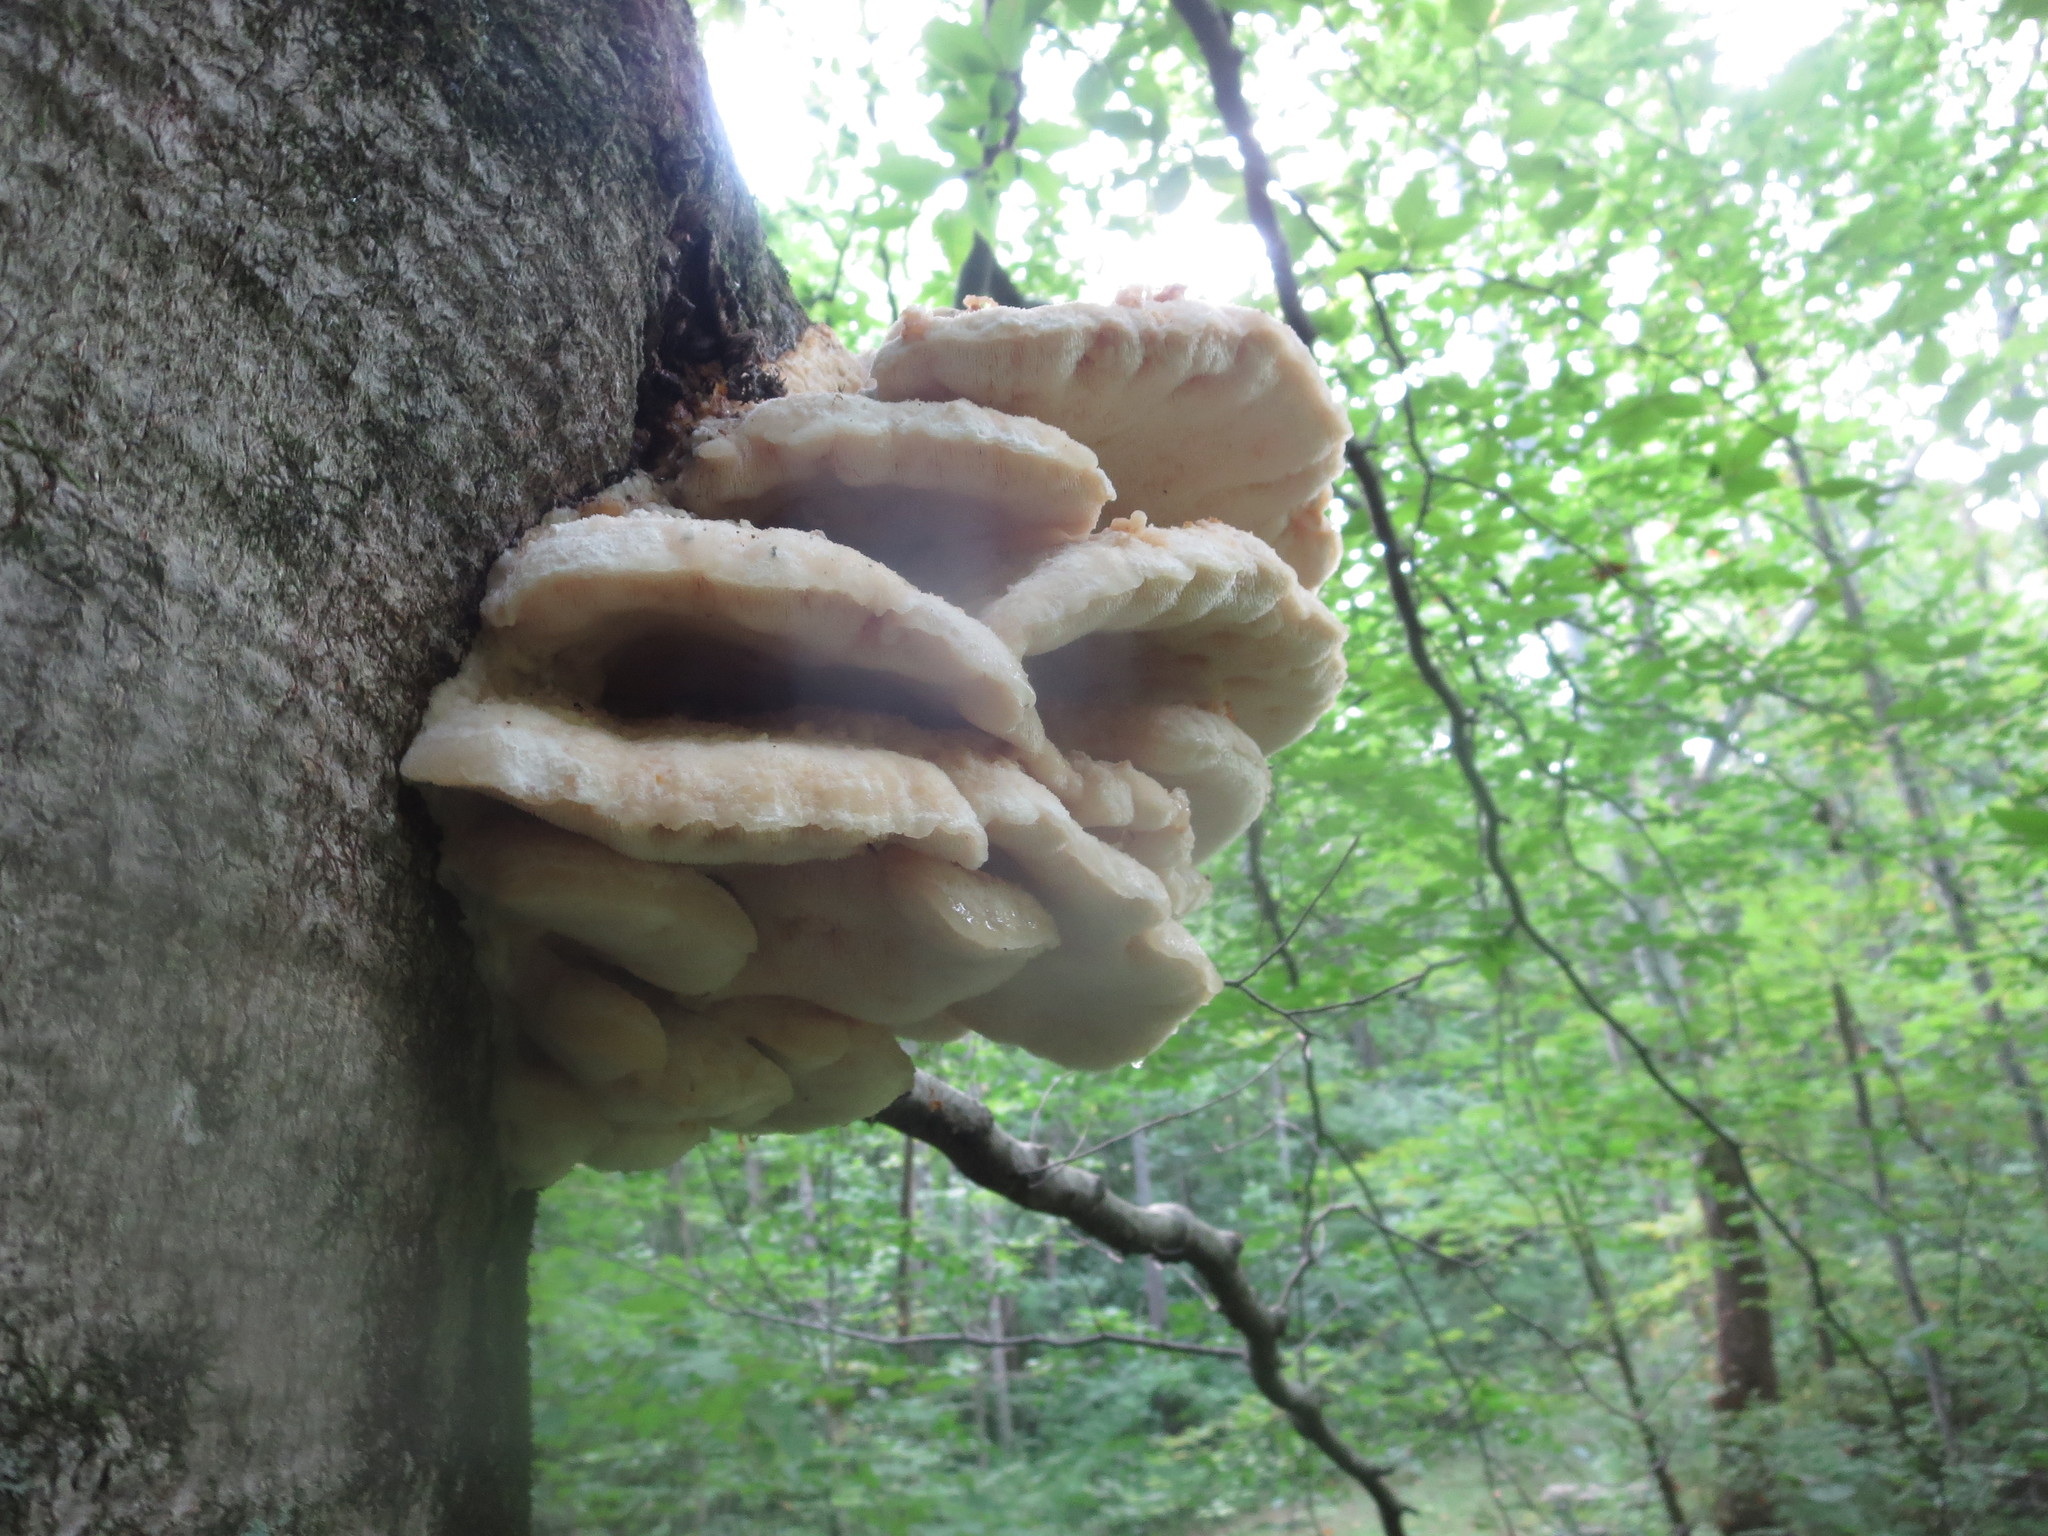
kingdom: Fungi
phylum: Basidiomycota
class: Agaricomycetes
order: Polyporales
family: Meruliaceae
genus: Climacodon
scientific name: Climacodon septentrionalis
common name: Northern tooth
